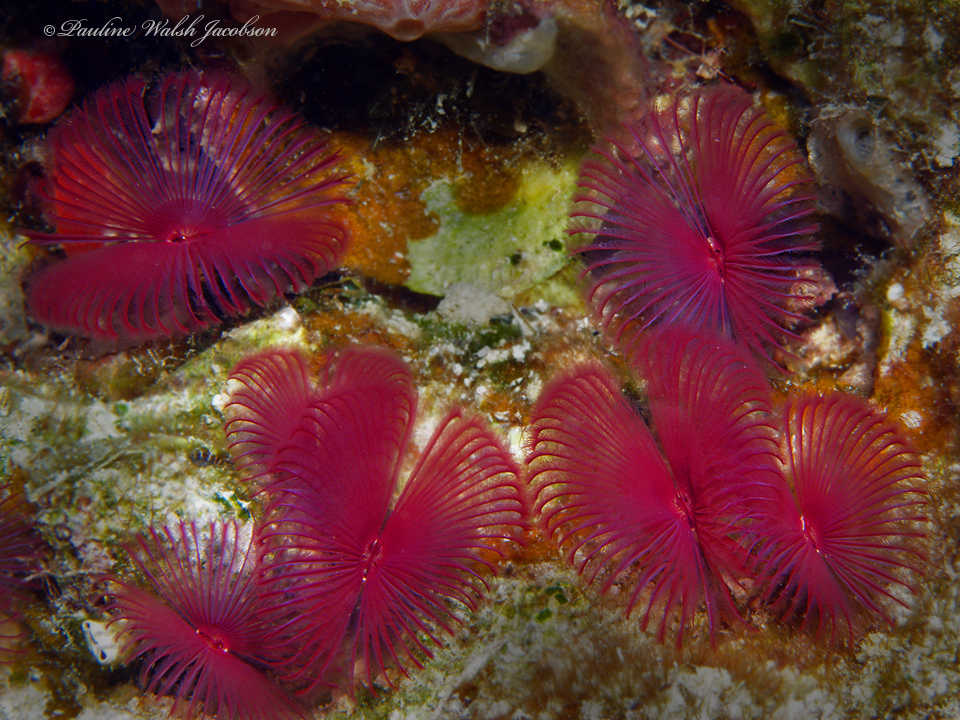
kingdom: Animalia
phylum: Annelida
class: Polychaeta
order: Sabellida
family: Sabellidae
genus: Anamobaea
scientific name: Anamobaea orstedii
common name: Split-crown feather duster
